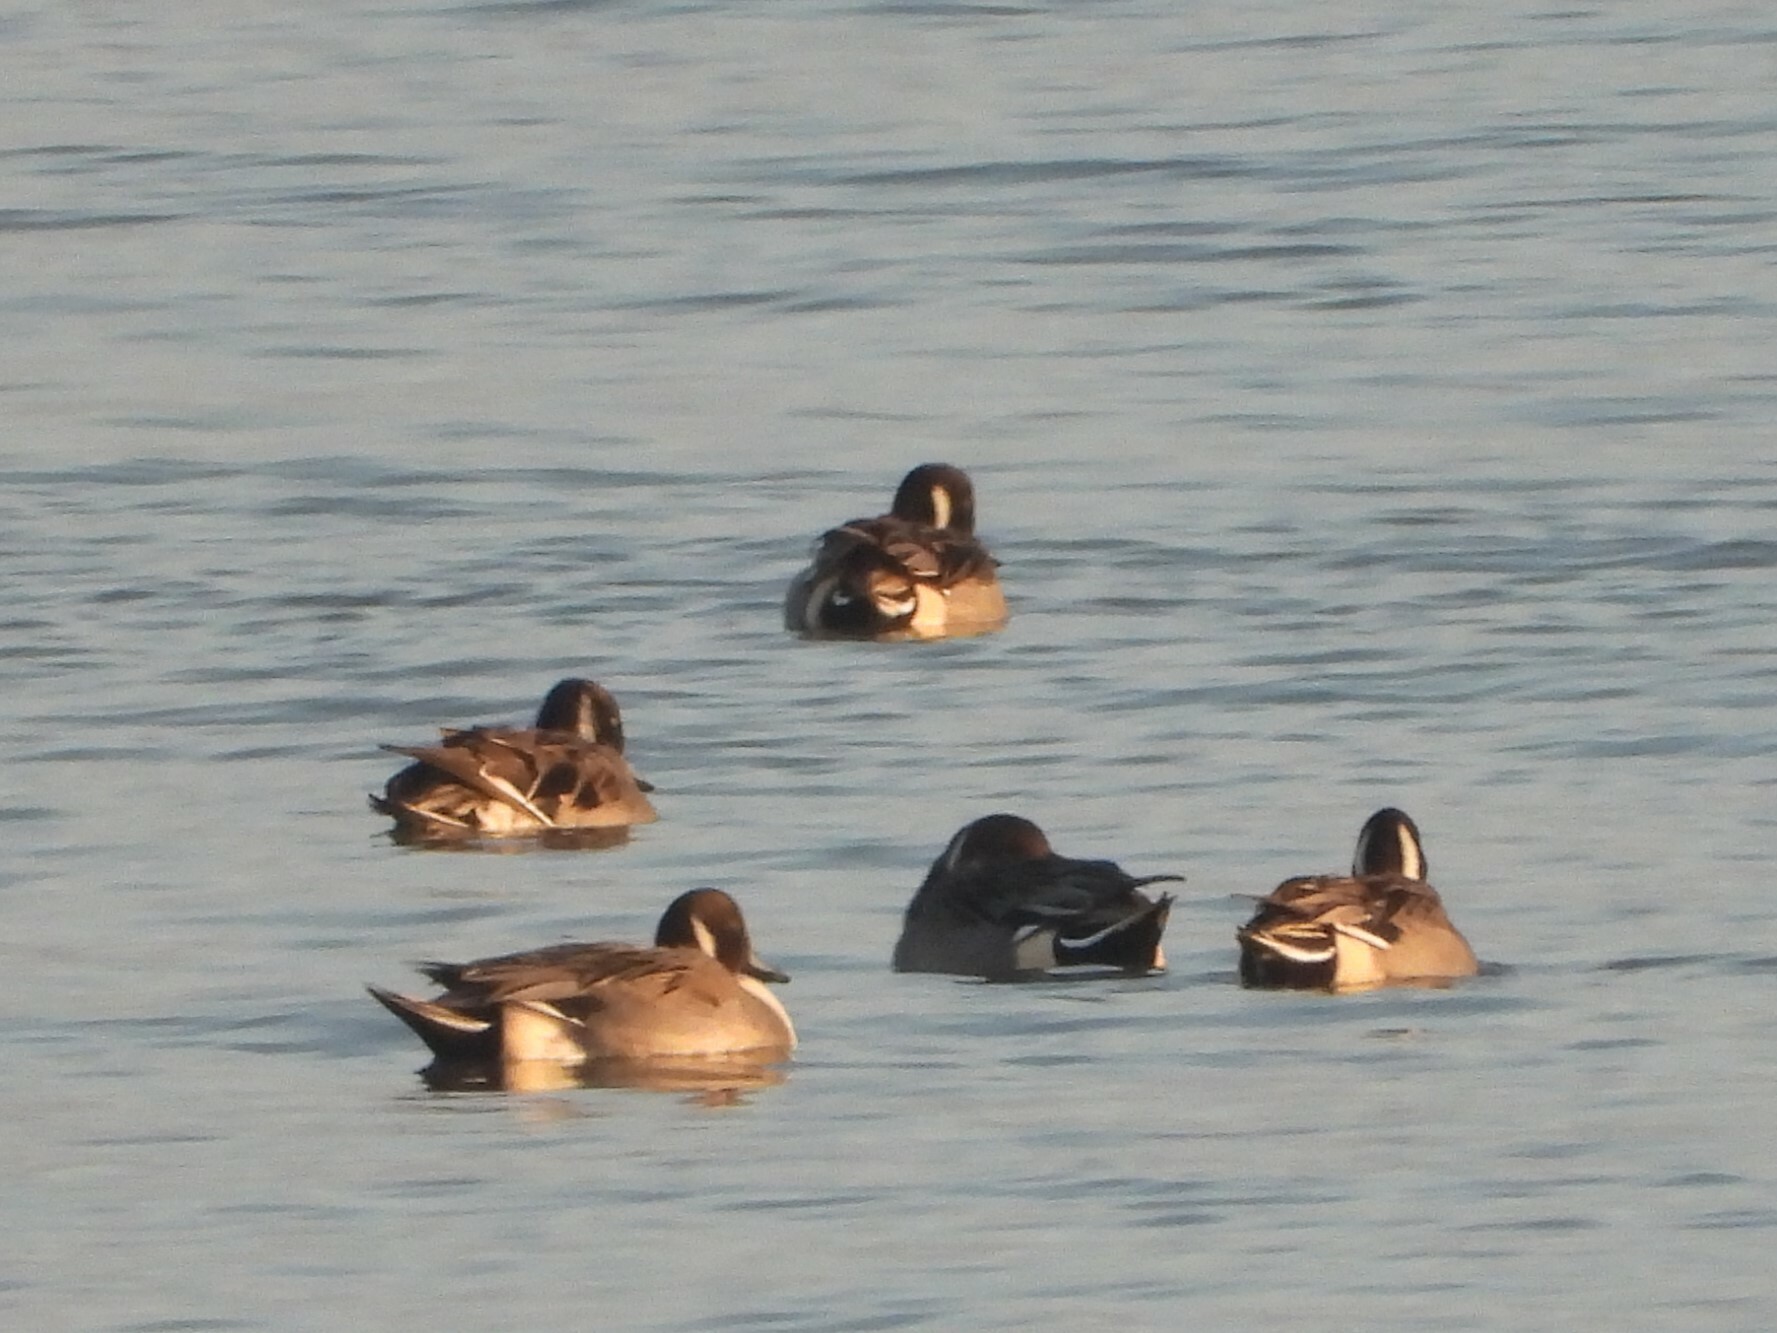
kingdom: Animalia
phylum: Chordata
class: Aves
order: Anseriformes
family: Anatidae
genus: Anas
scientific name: Anas acuta
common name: Northern pintail
